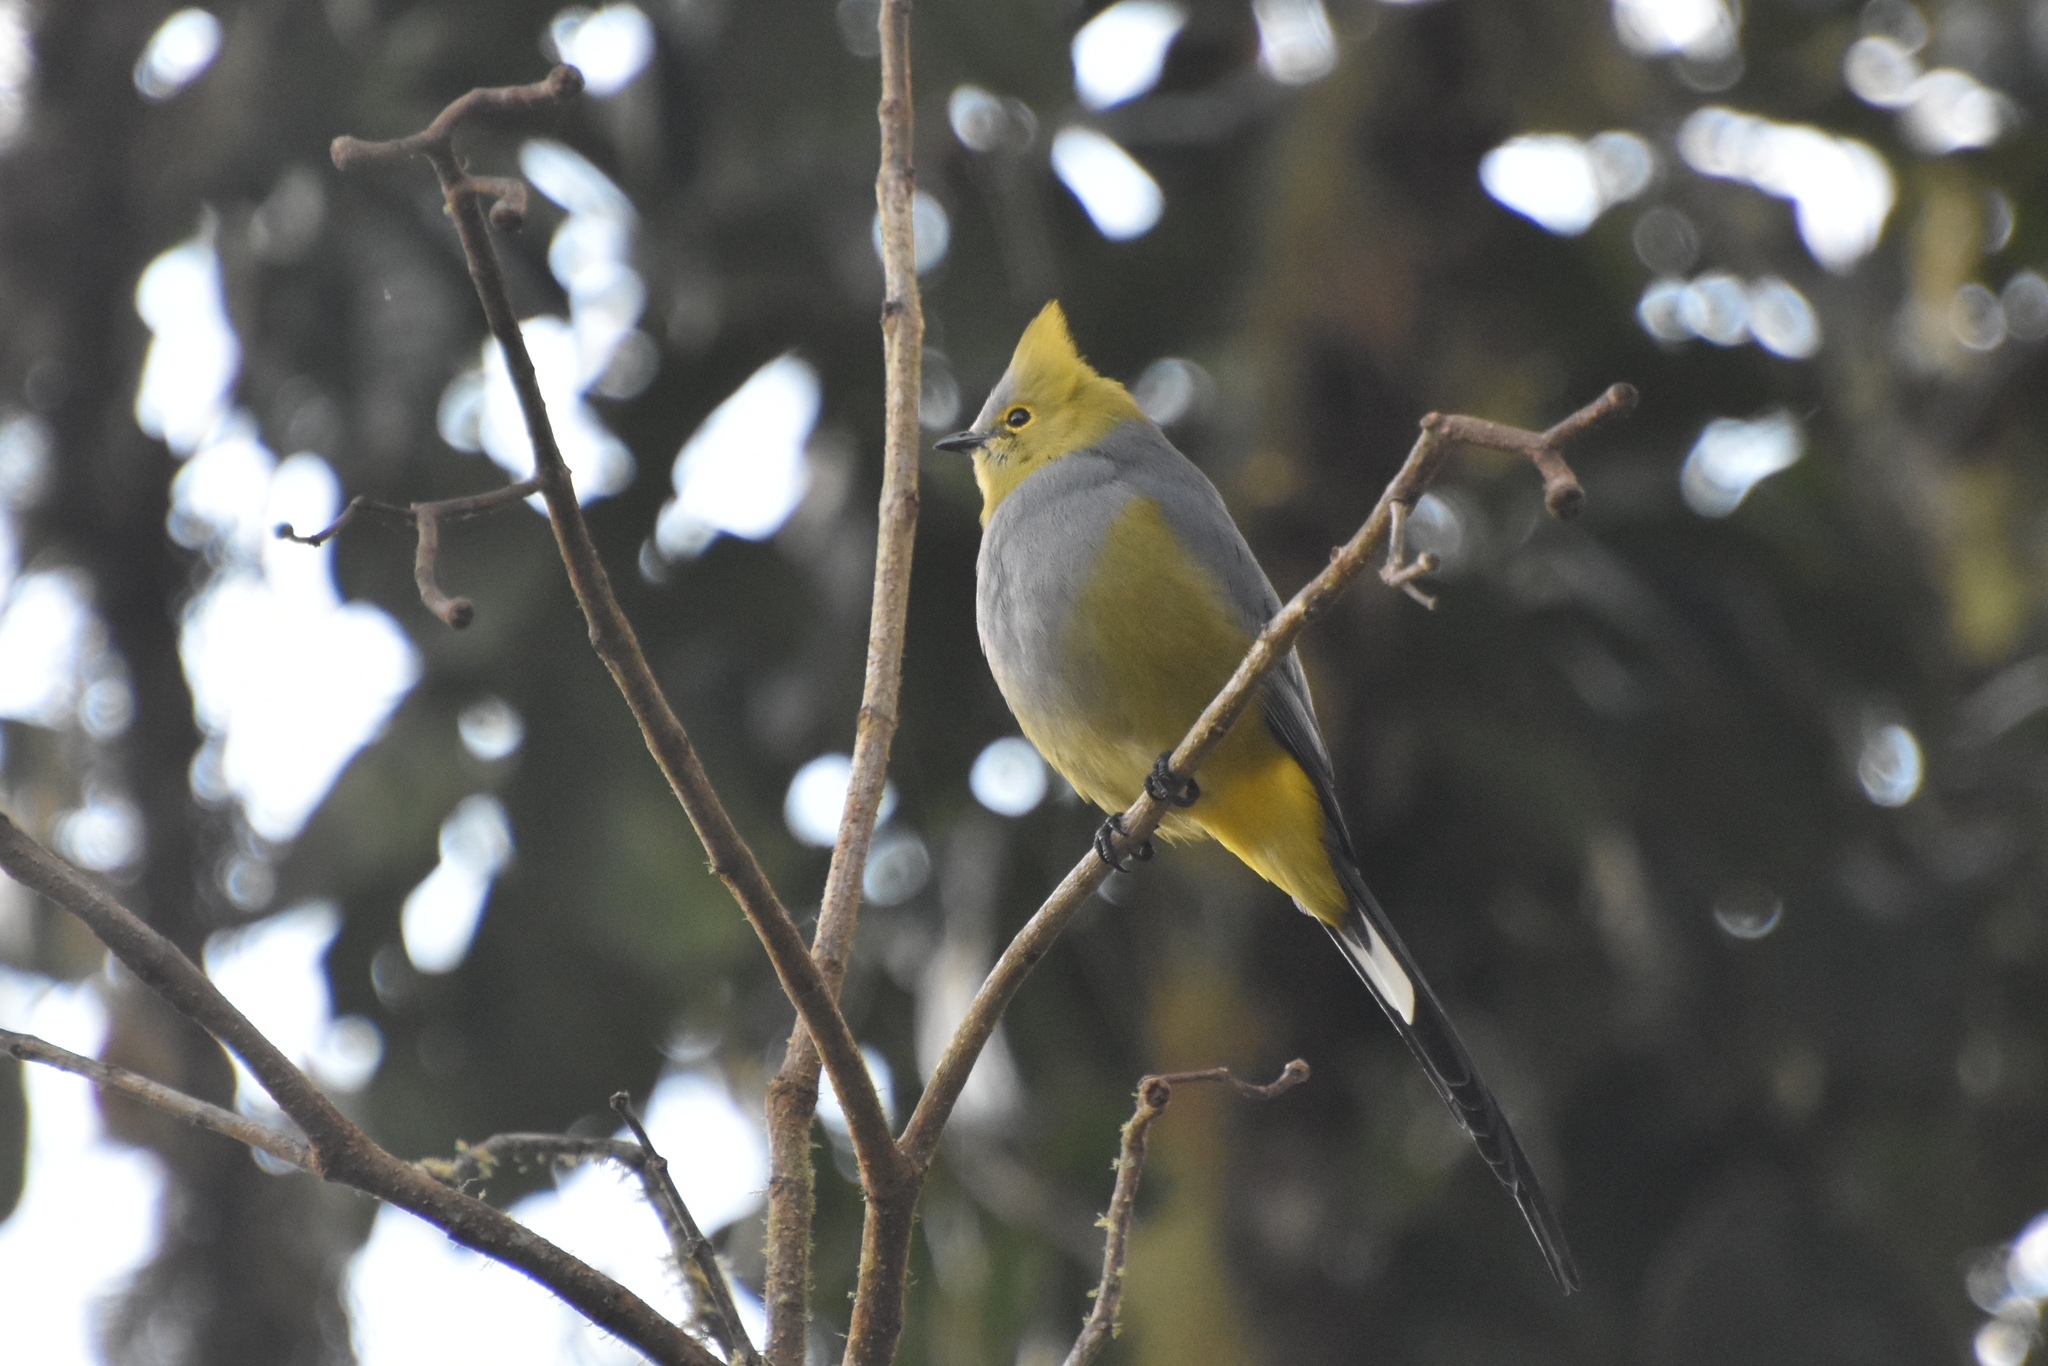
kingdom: Animalia
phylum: Chordata
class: Aves
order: Passeriformes
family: Ptilogonatidae
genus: Ptilogonys
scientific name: Ptilogonys caudatus
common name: Long-tailed silky-flycatcher
